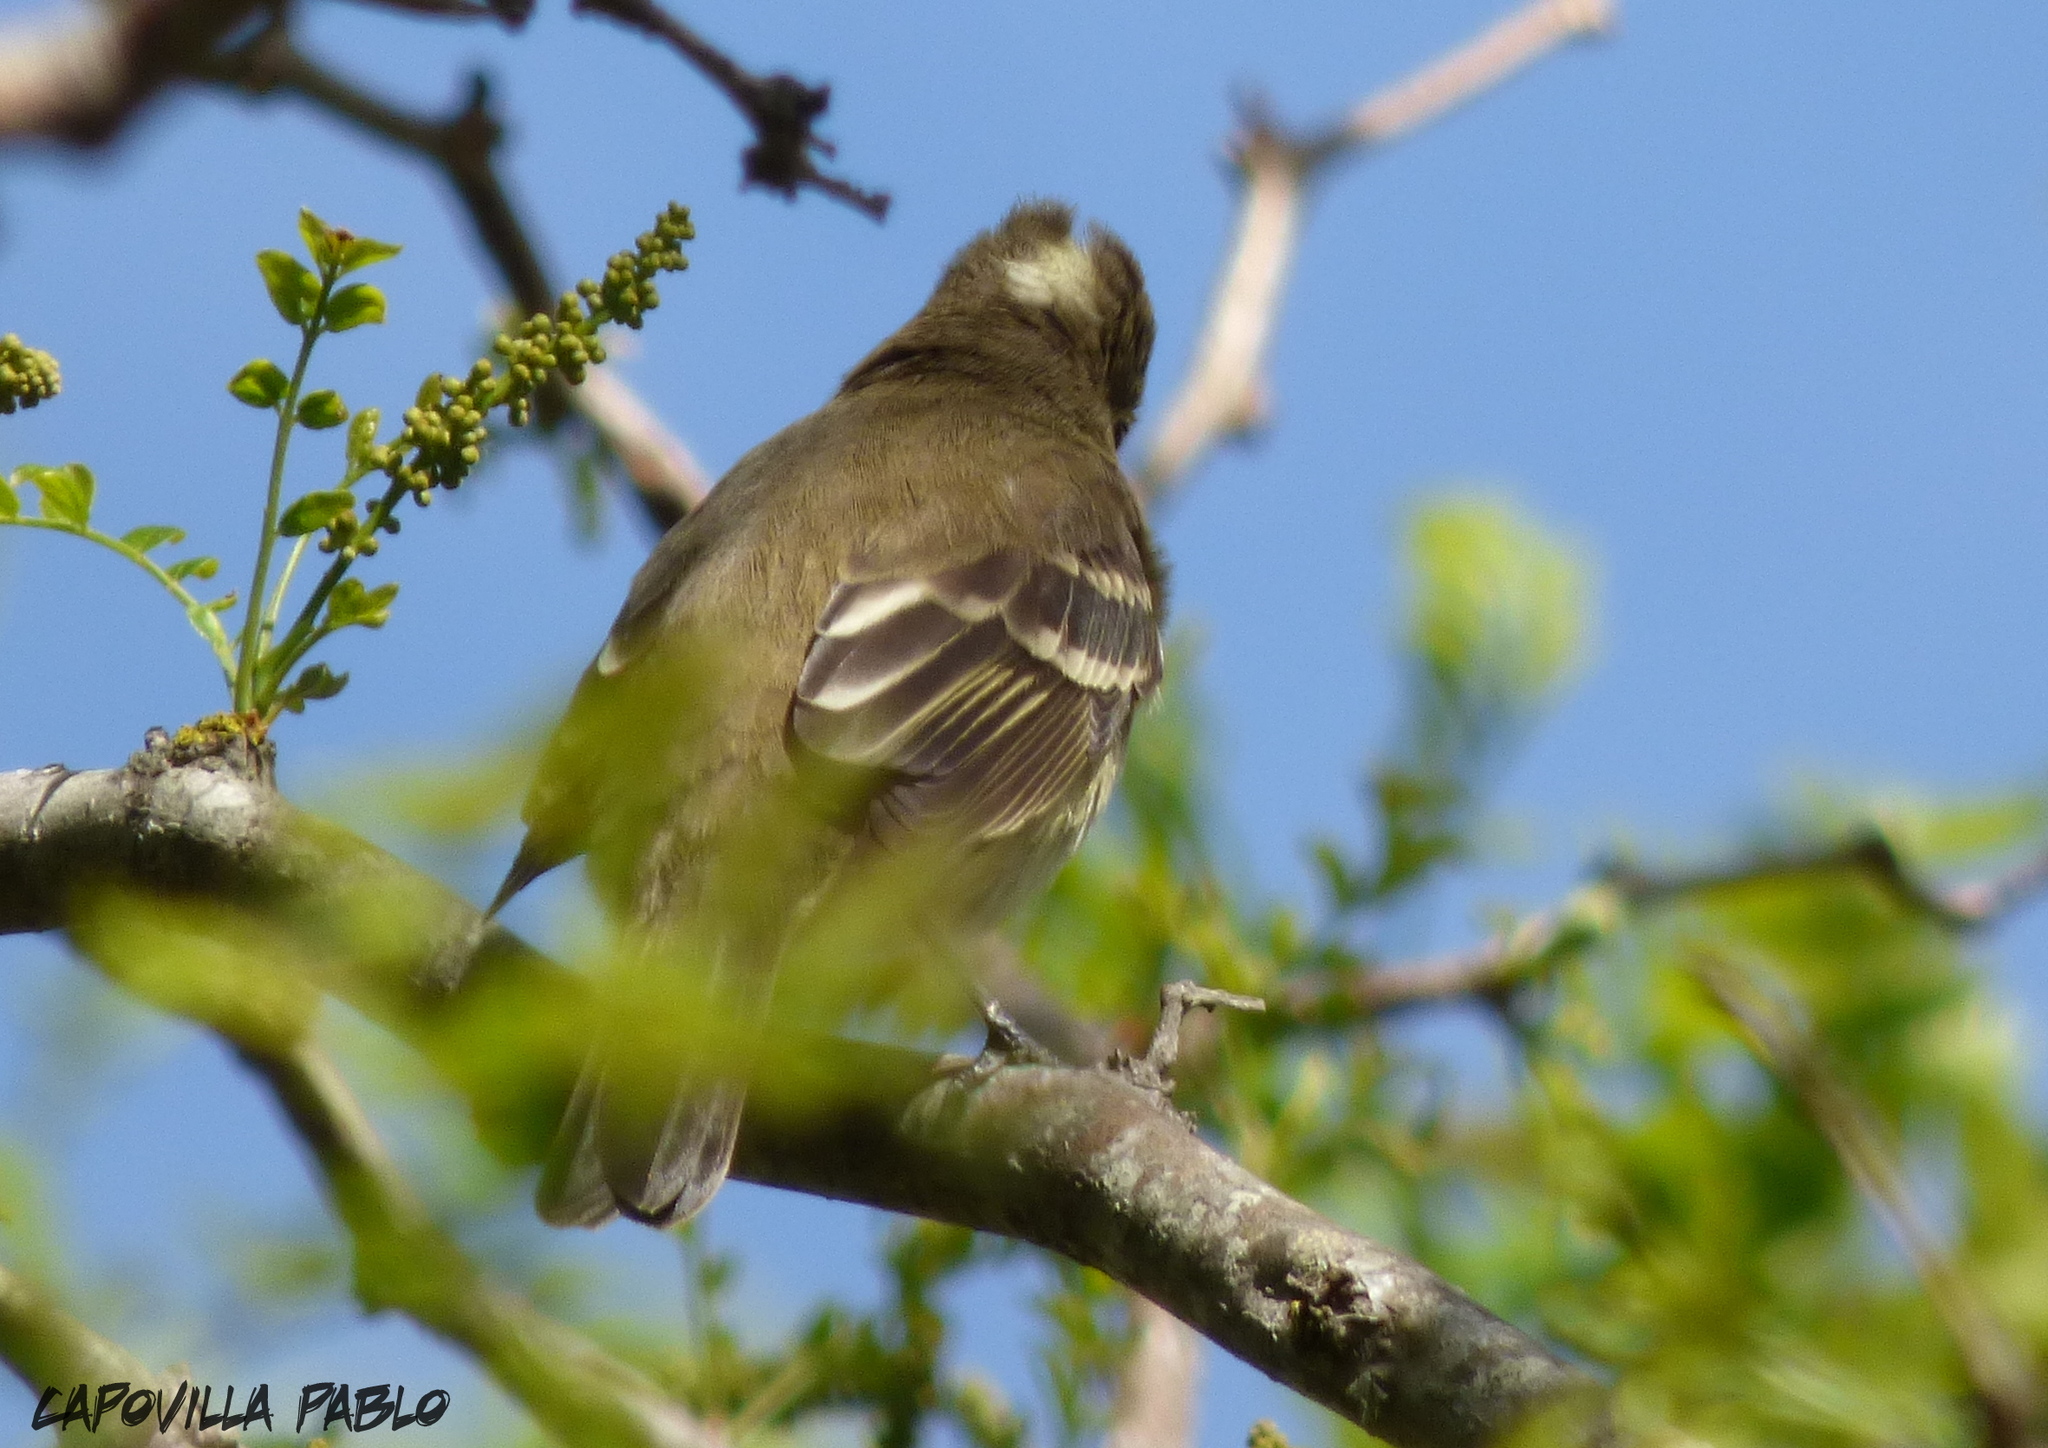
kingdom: Animalia
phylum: Chordata
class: Aves
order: Passeriformes
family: Tyrannidae
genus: Elaenia
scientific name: Elaenia albiceps
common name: White-crested elaenia
